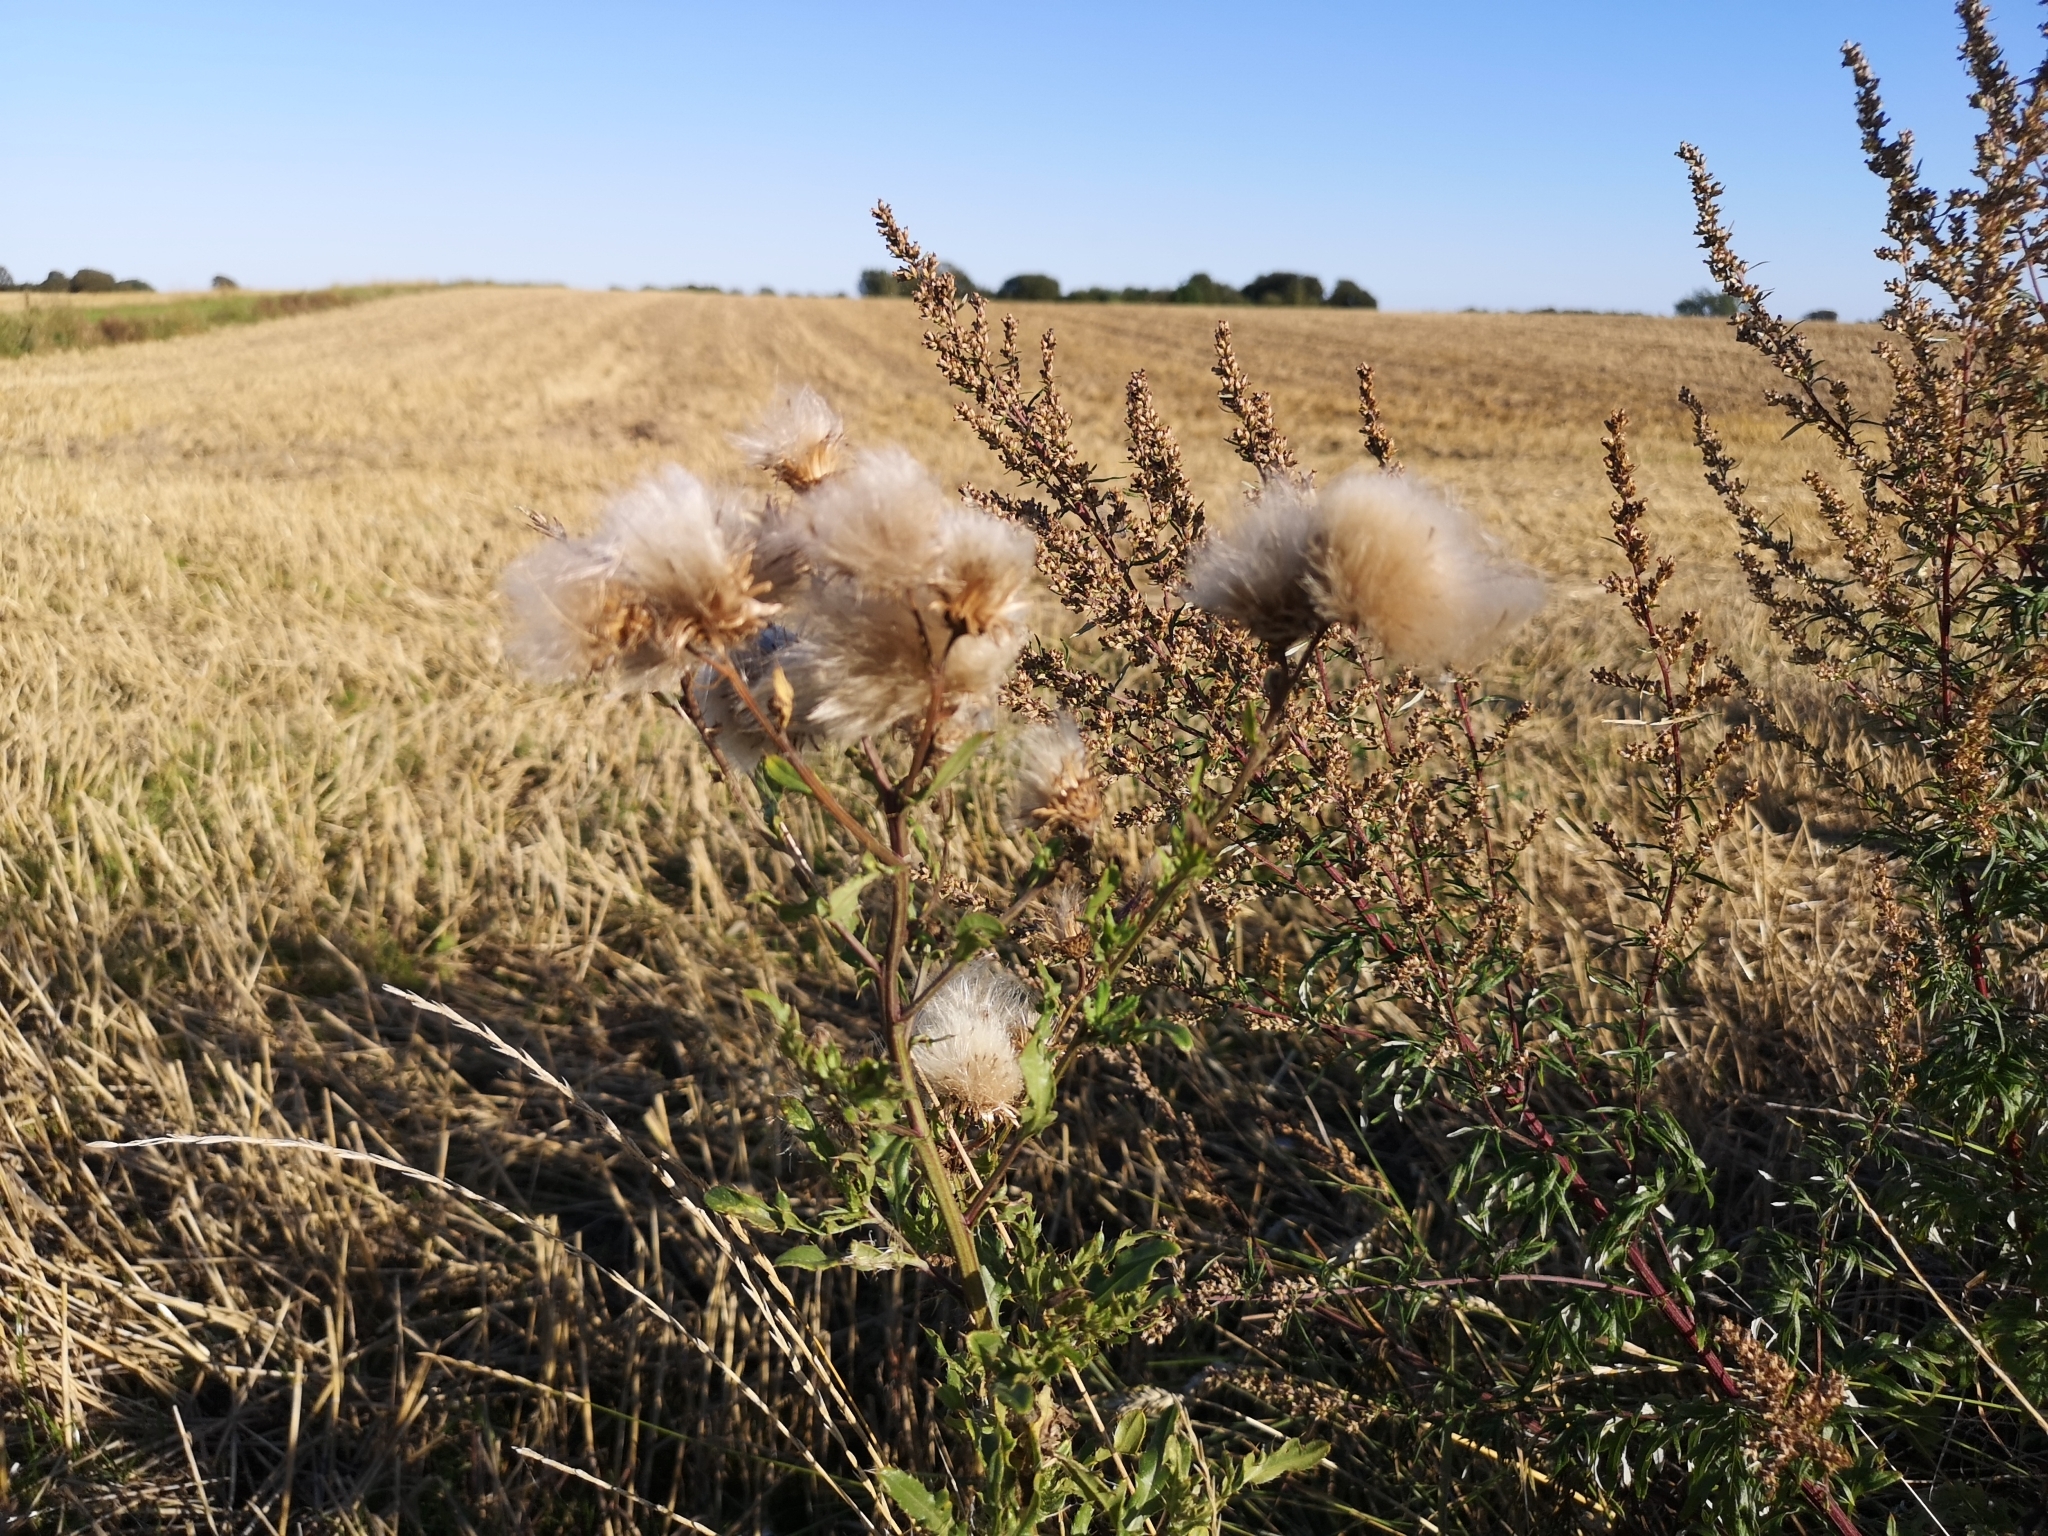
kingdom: Plantae
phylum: Tracheophyta
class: Magnoliopsida
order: Asterales
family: Asteraceae
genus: Cirsium
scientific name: Cirsium arvense
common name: Creeping thistle
